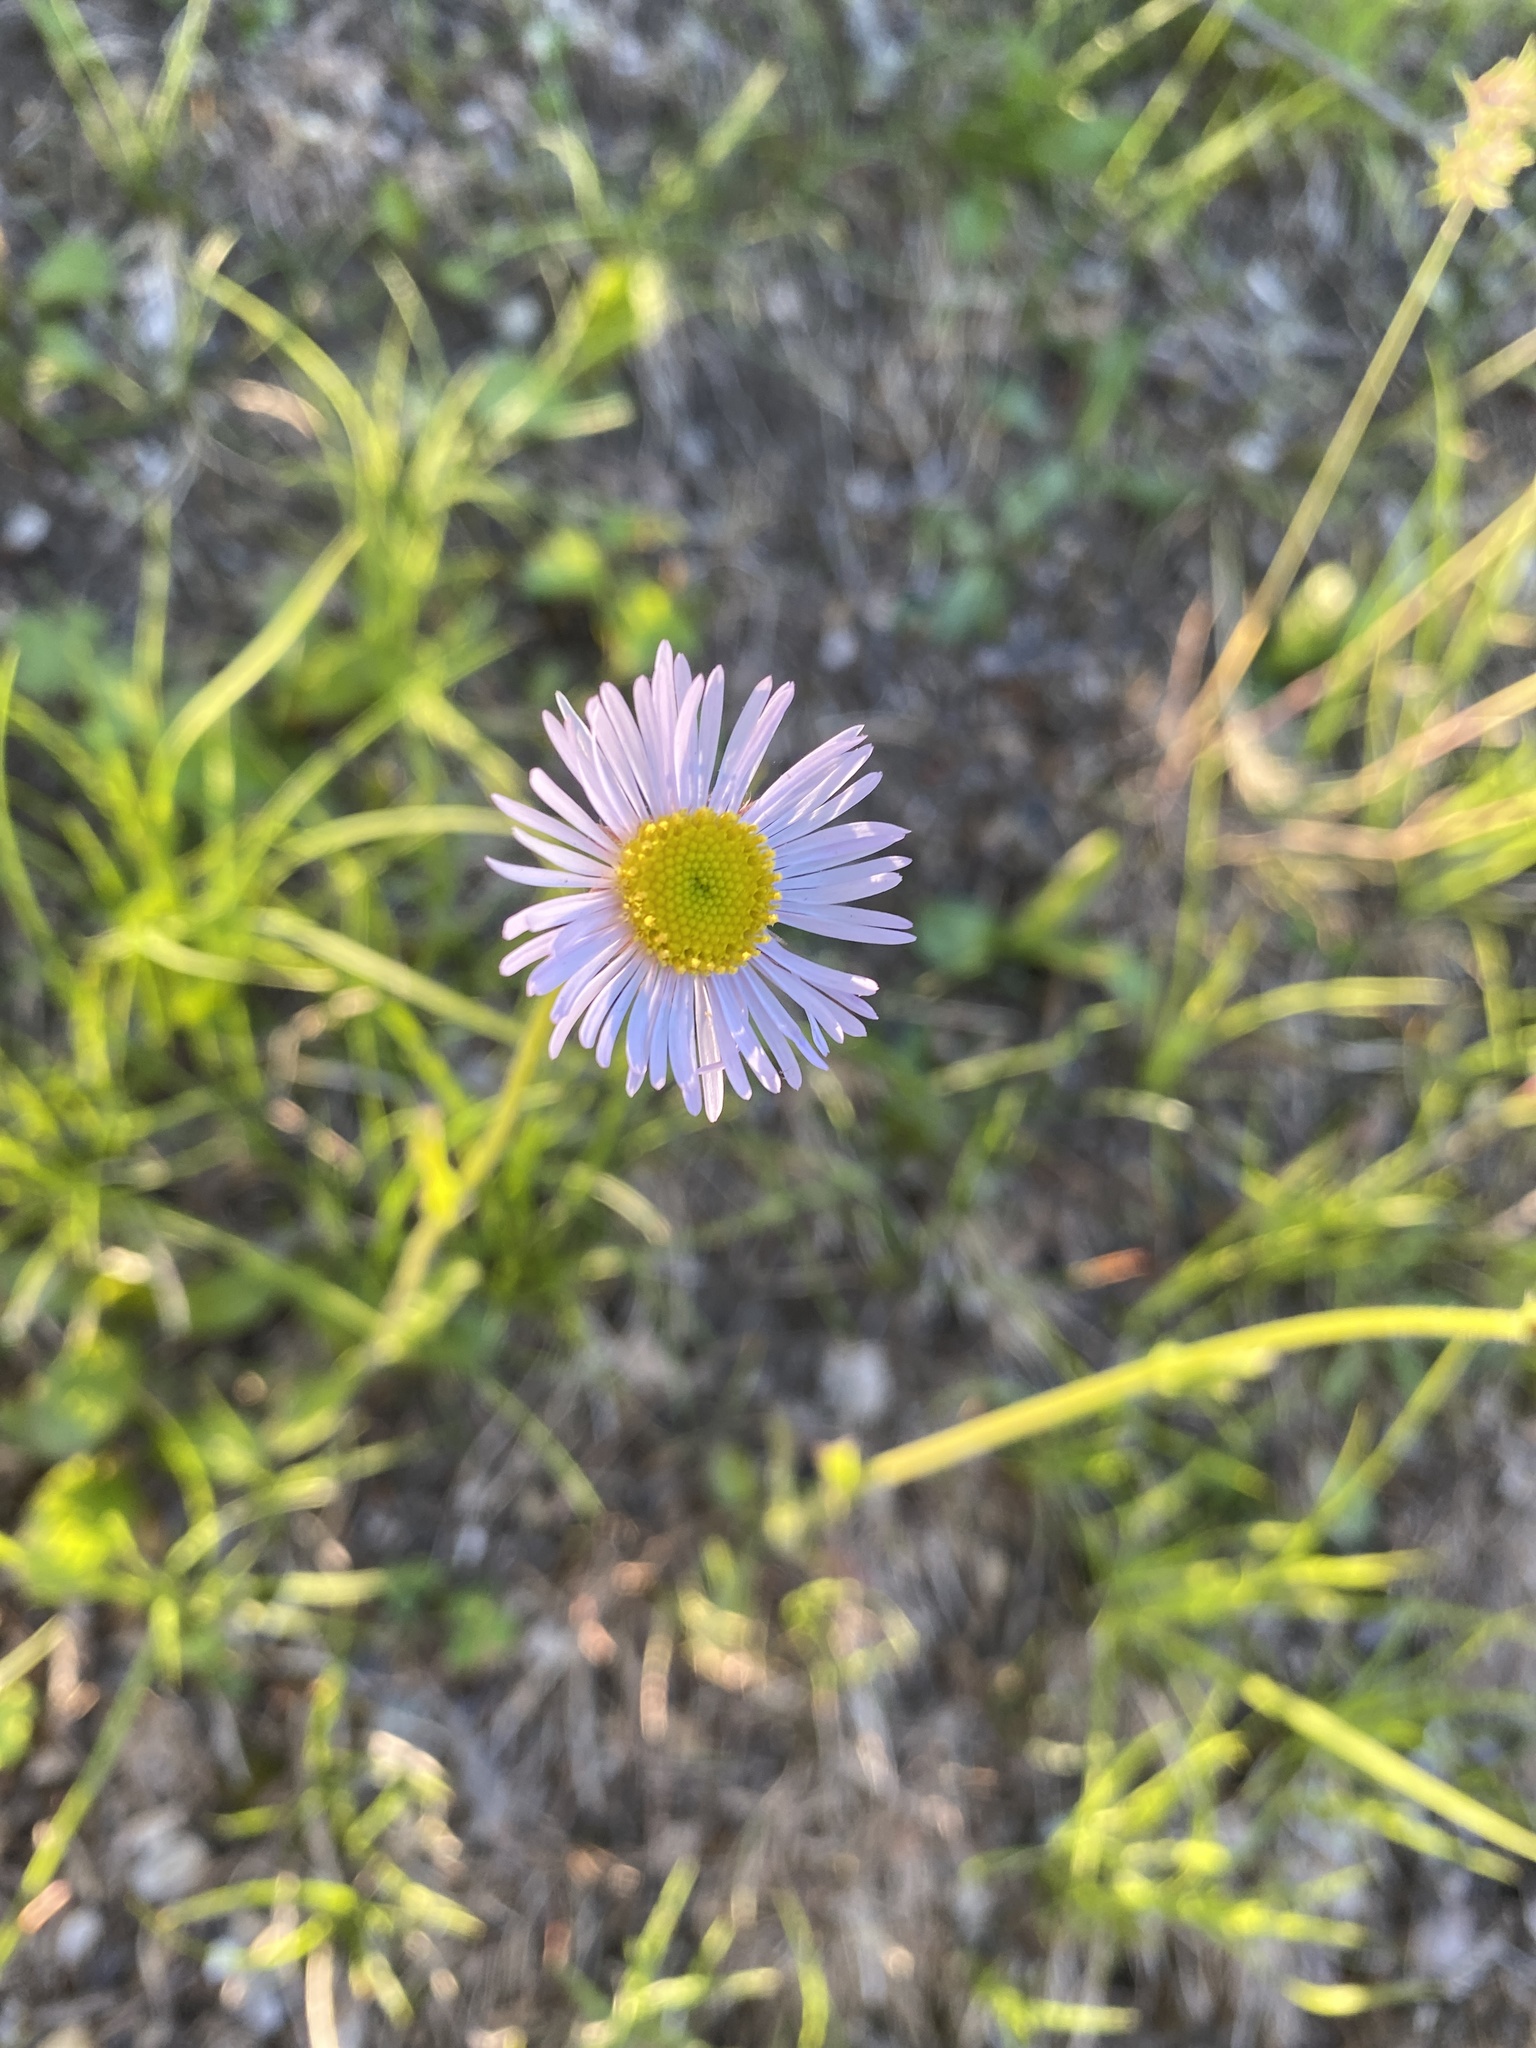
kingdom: Plantae
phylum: Tracheophyta
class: Magnoliopsida
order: Asterales
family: Asteraceae
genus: Erigeron
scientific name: Erigeron pulchellus
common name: Hairy fleabane
